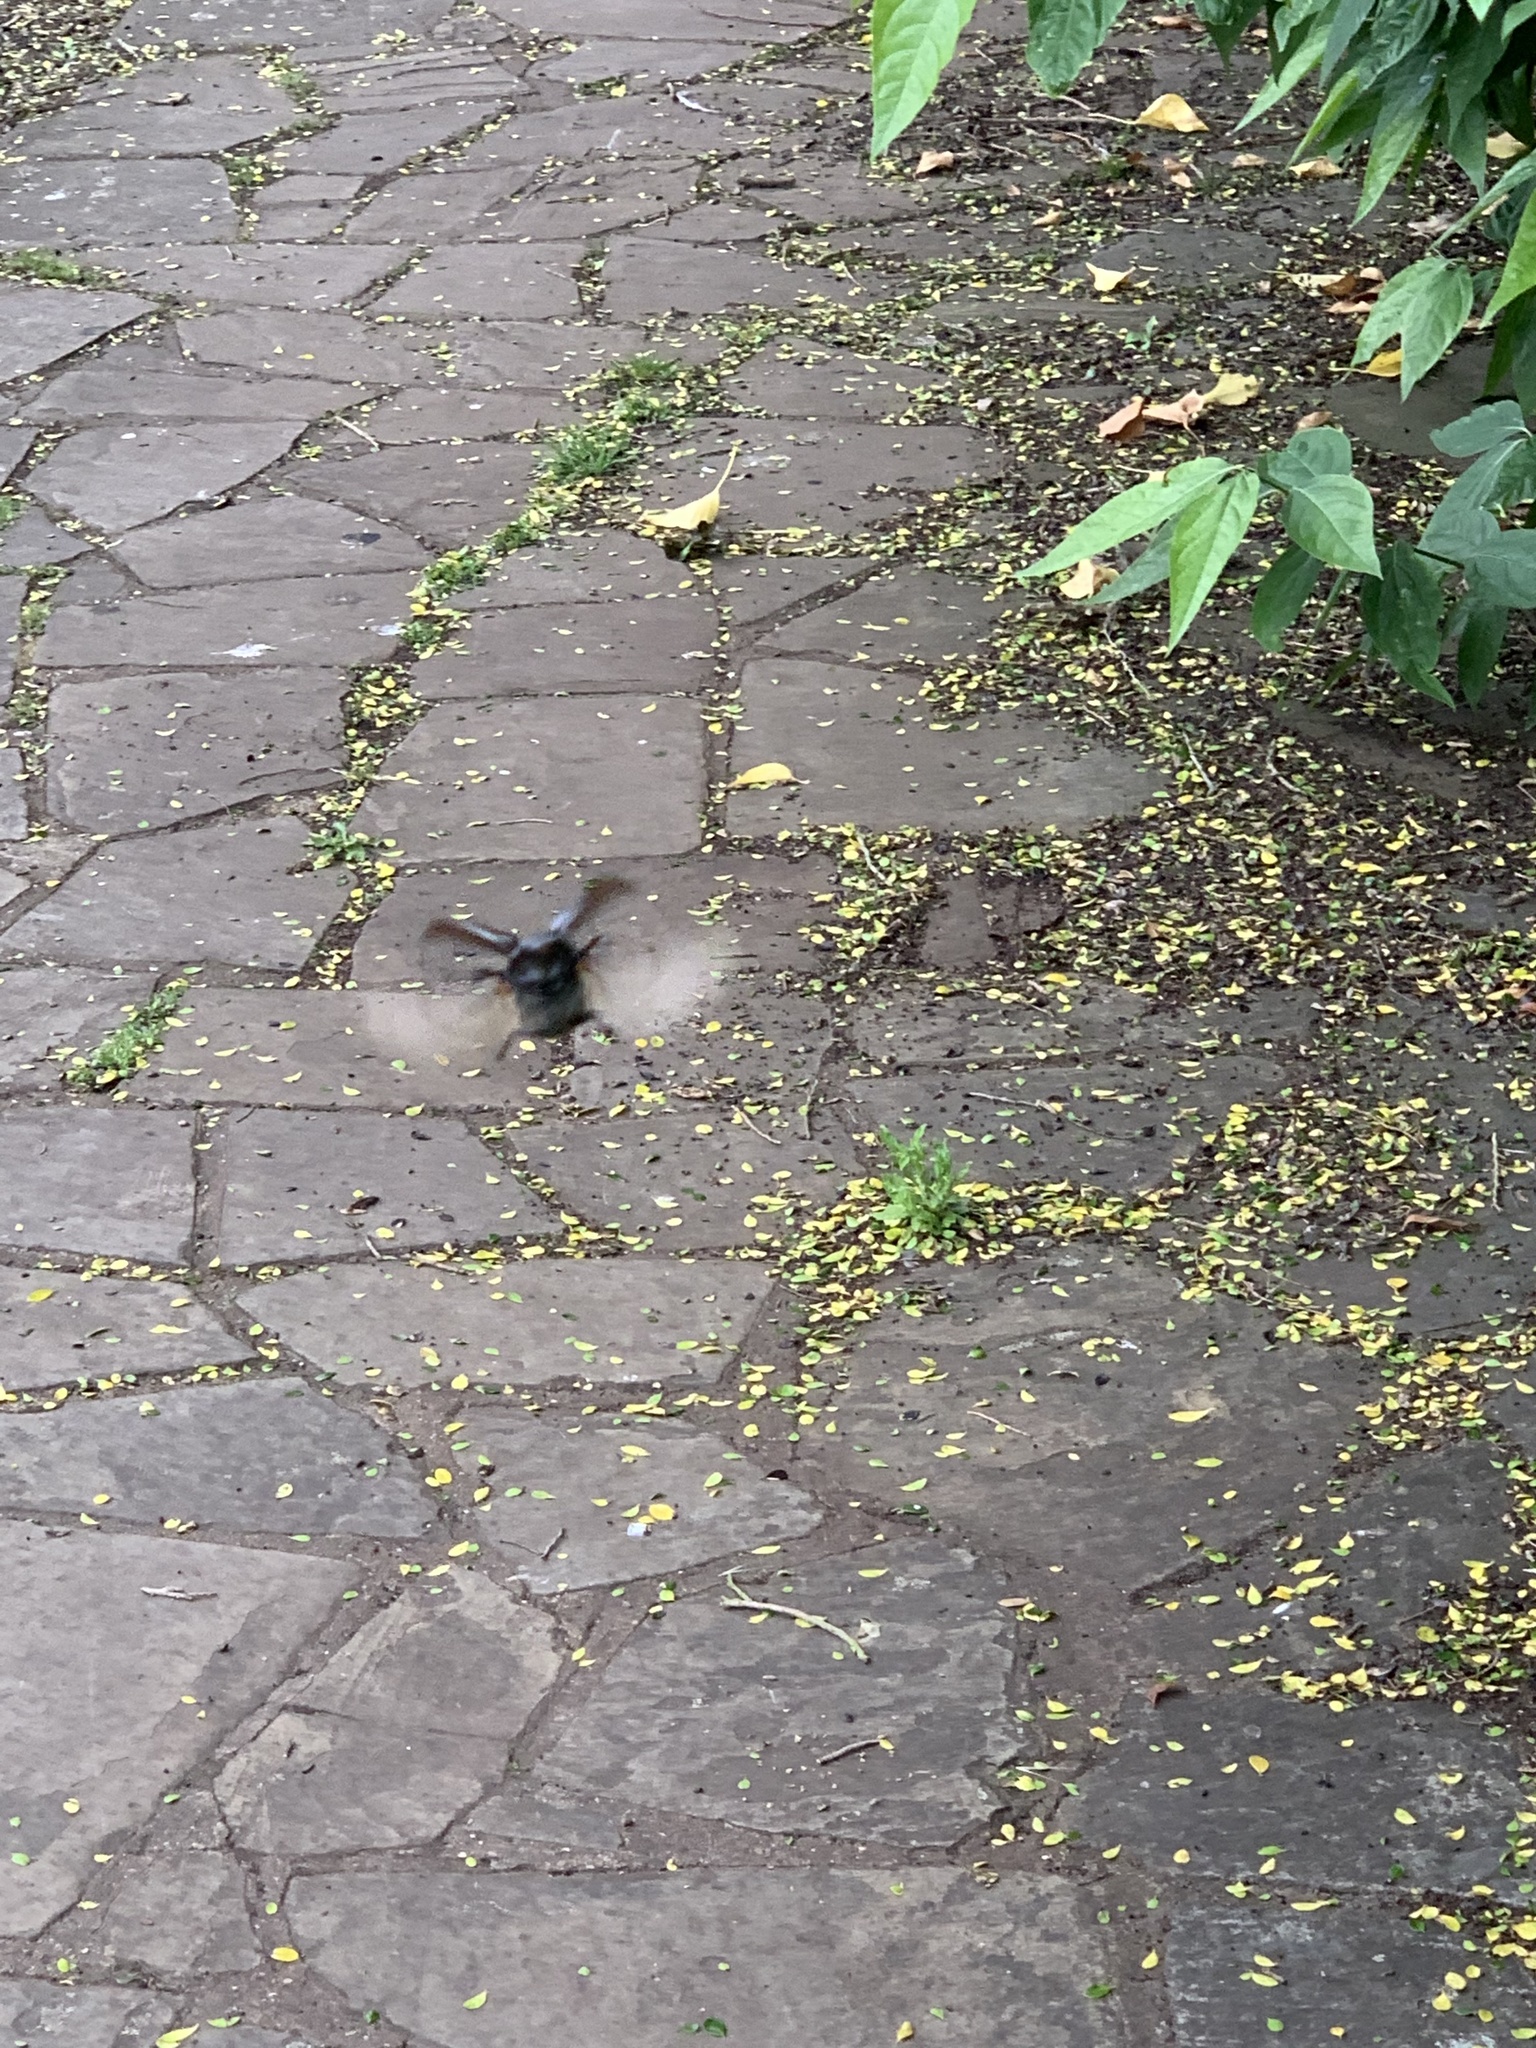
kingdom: Animalia
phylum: Arthropoda
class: Insecta
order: Coleoptera
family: Lucanidae
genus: Lucanus
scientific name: Lucanus cervus
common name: Stag beetle
